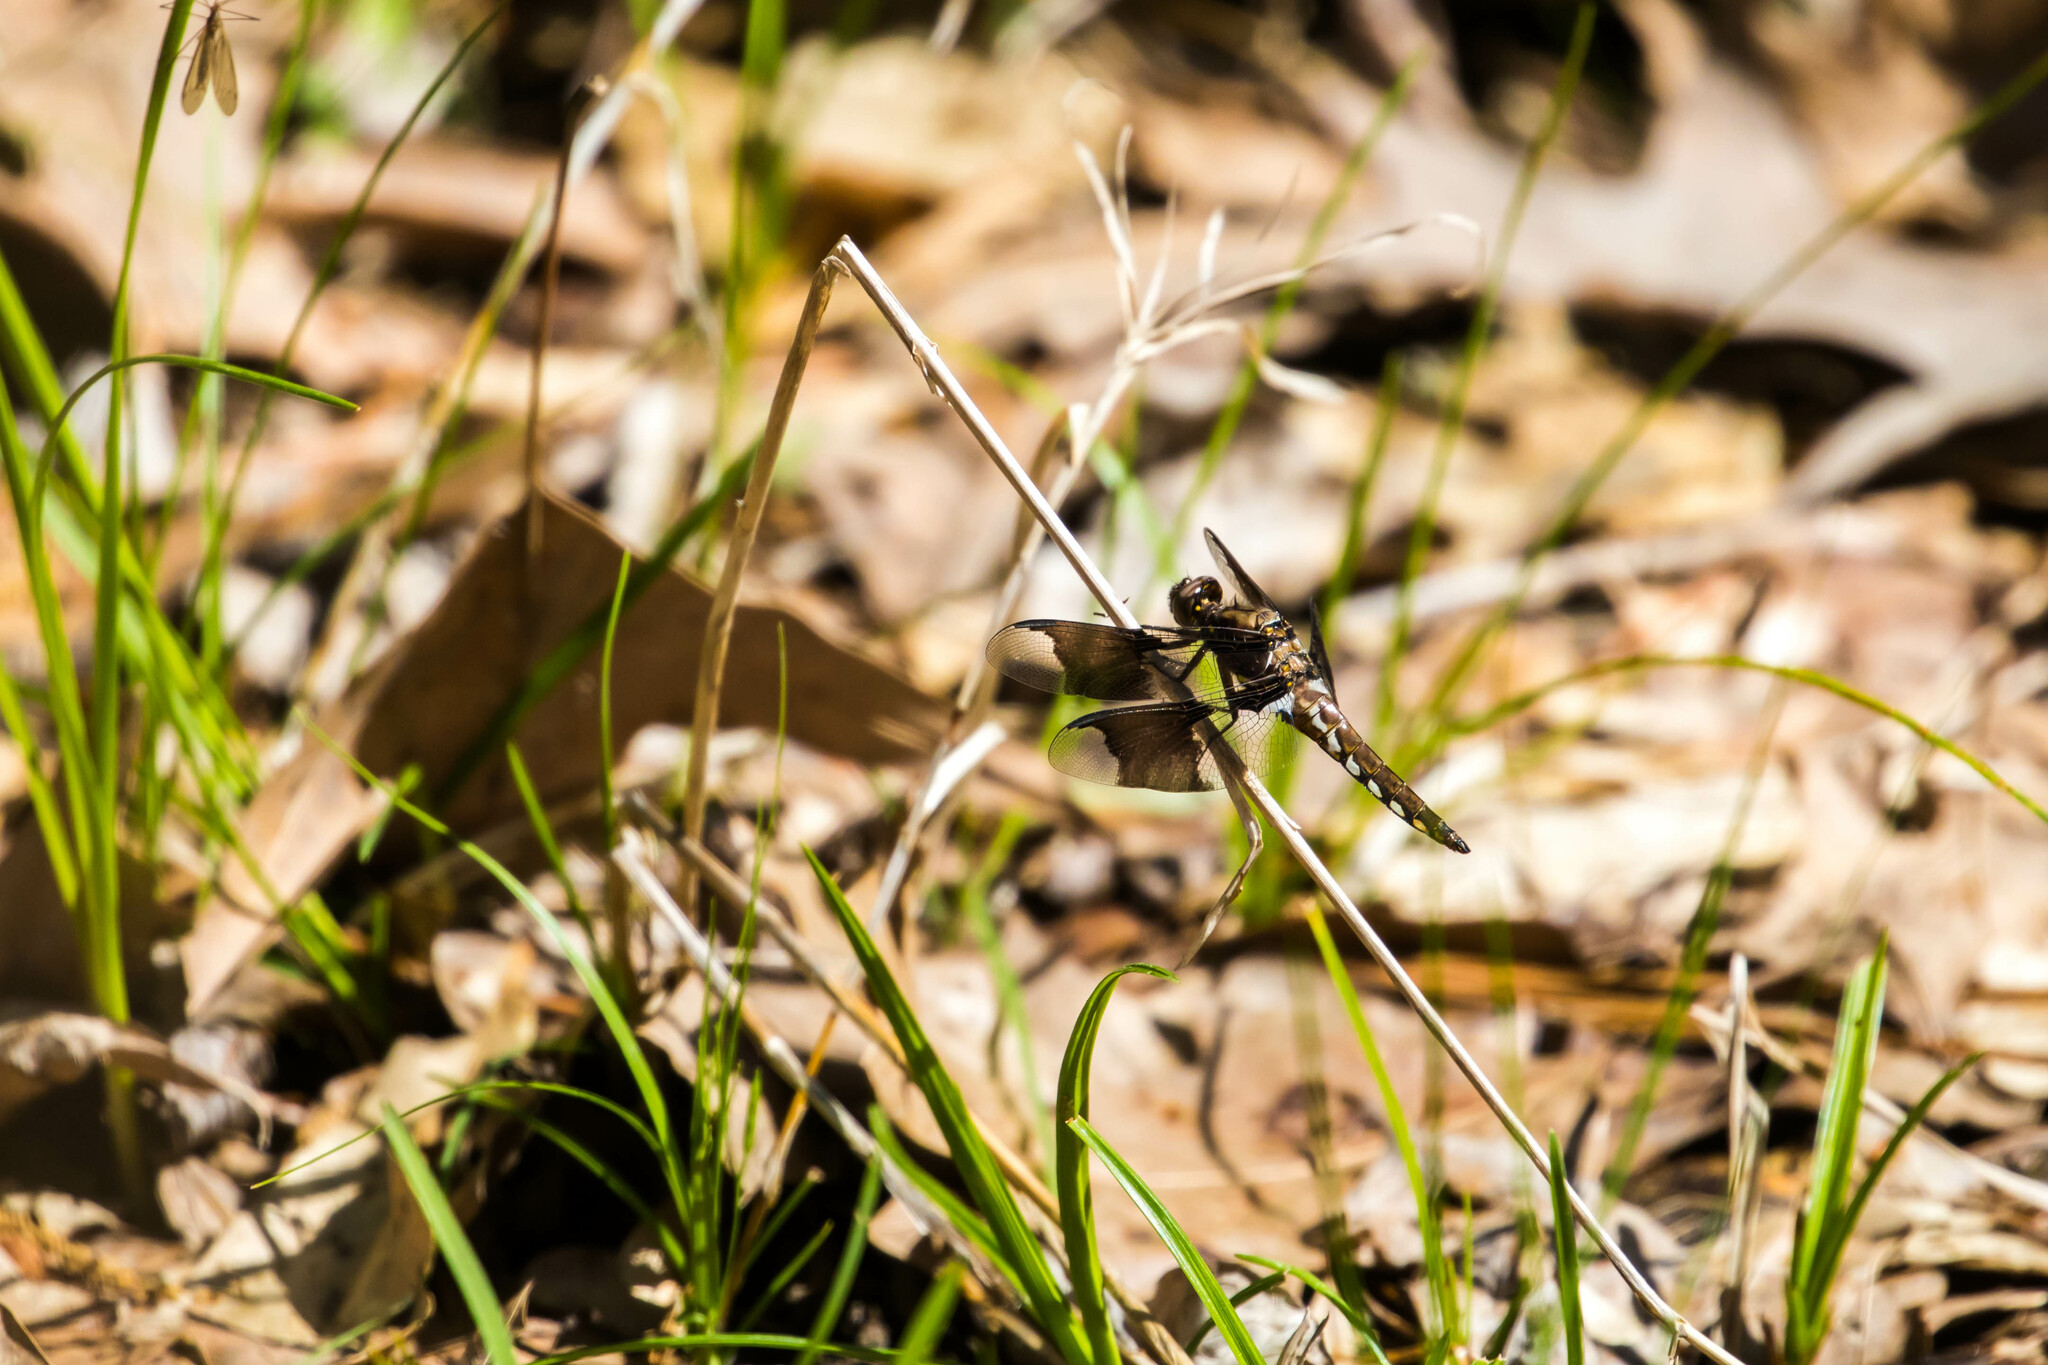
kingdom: Animalia
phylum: Arthropoda
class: Insecta
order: Odonata
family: Libellulidae
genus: Plathemis
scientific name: Plathemis lydia
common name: Common whitetail
